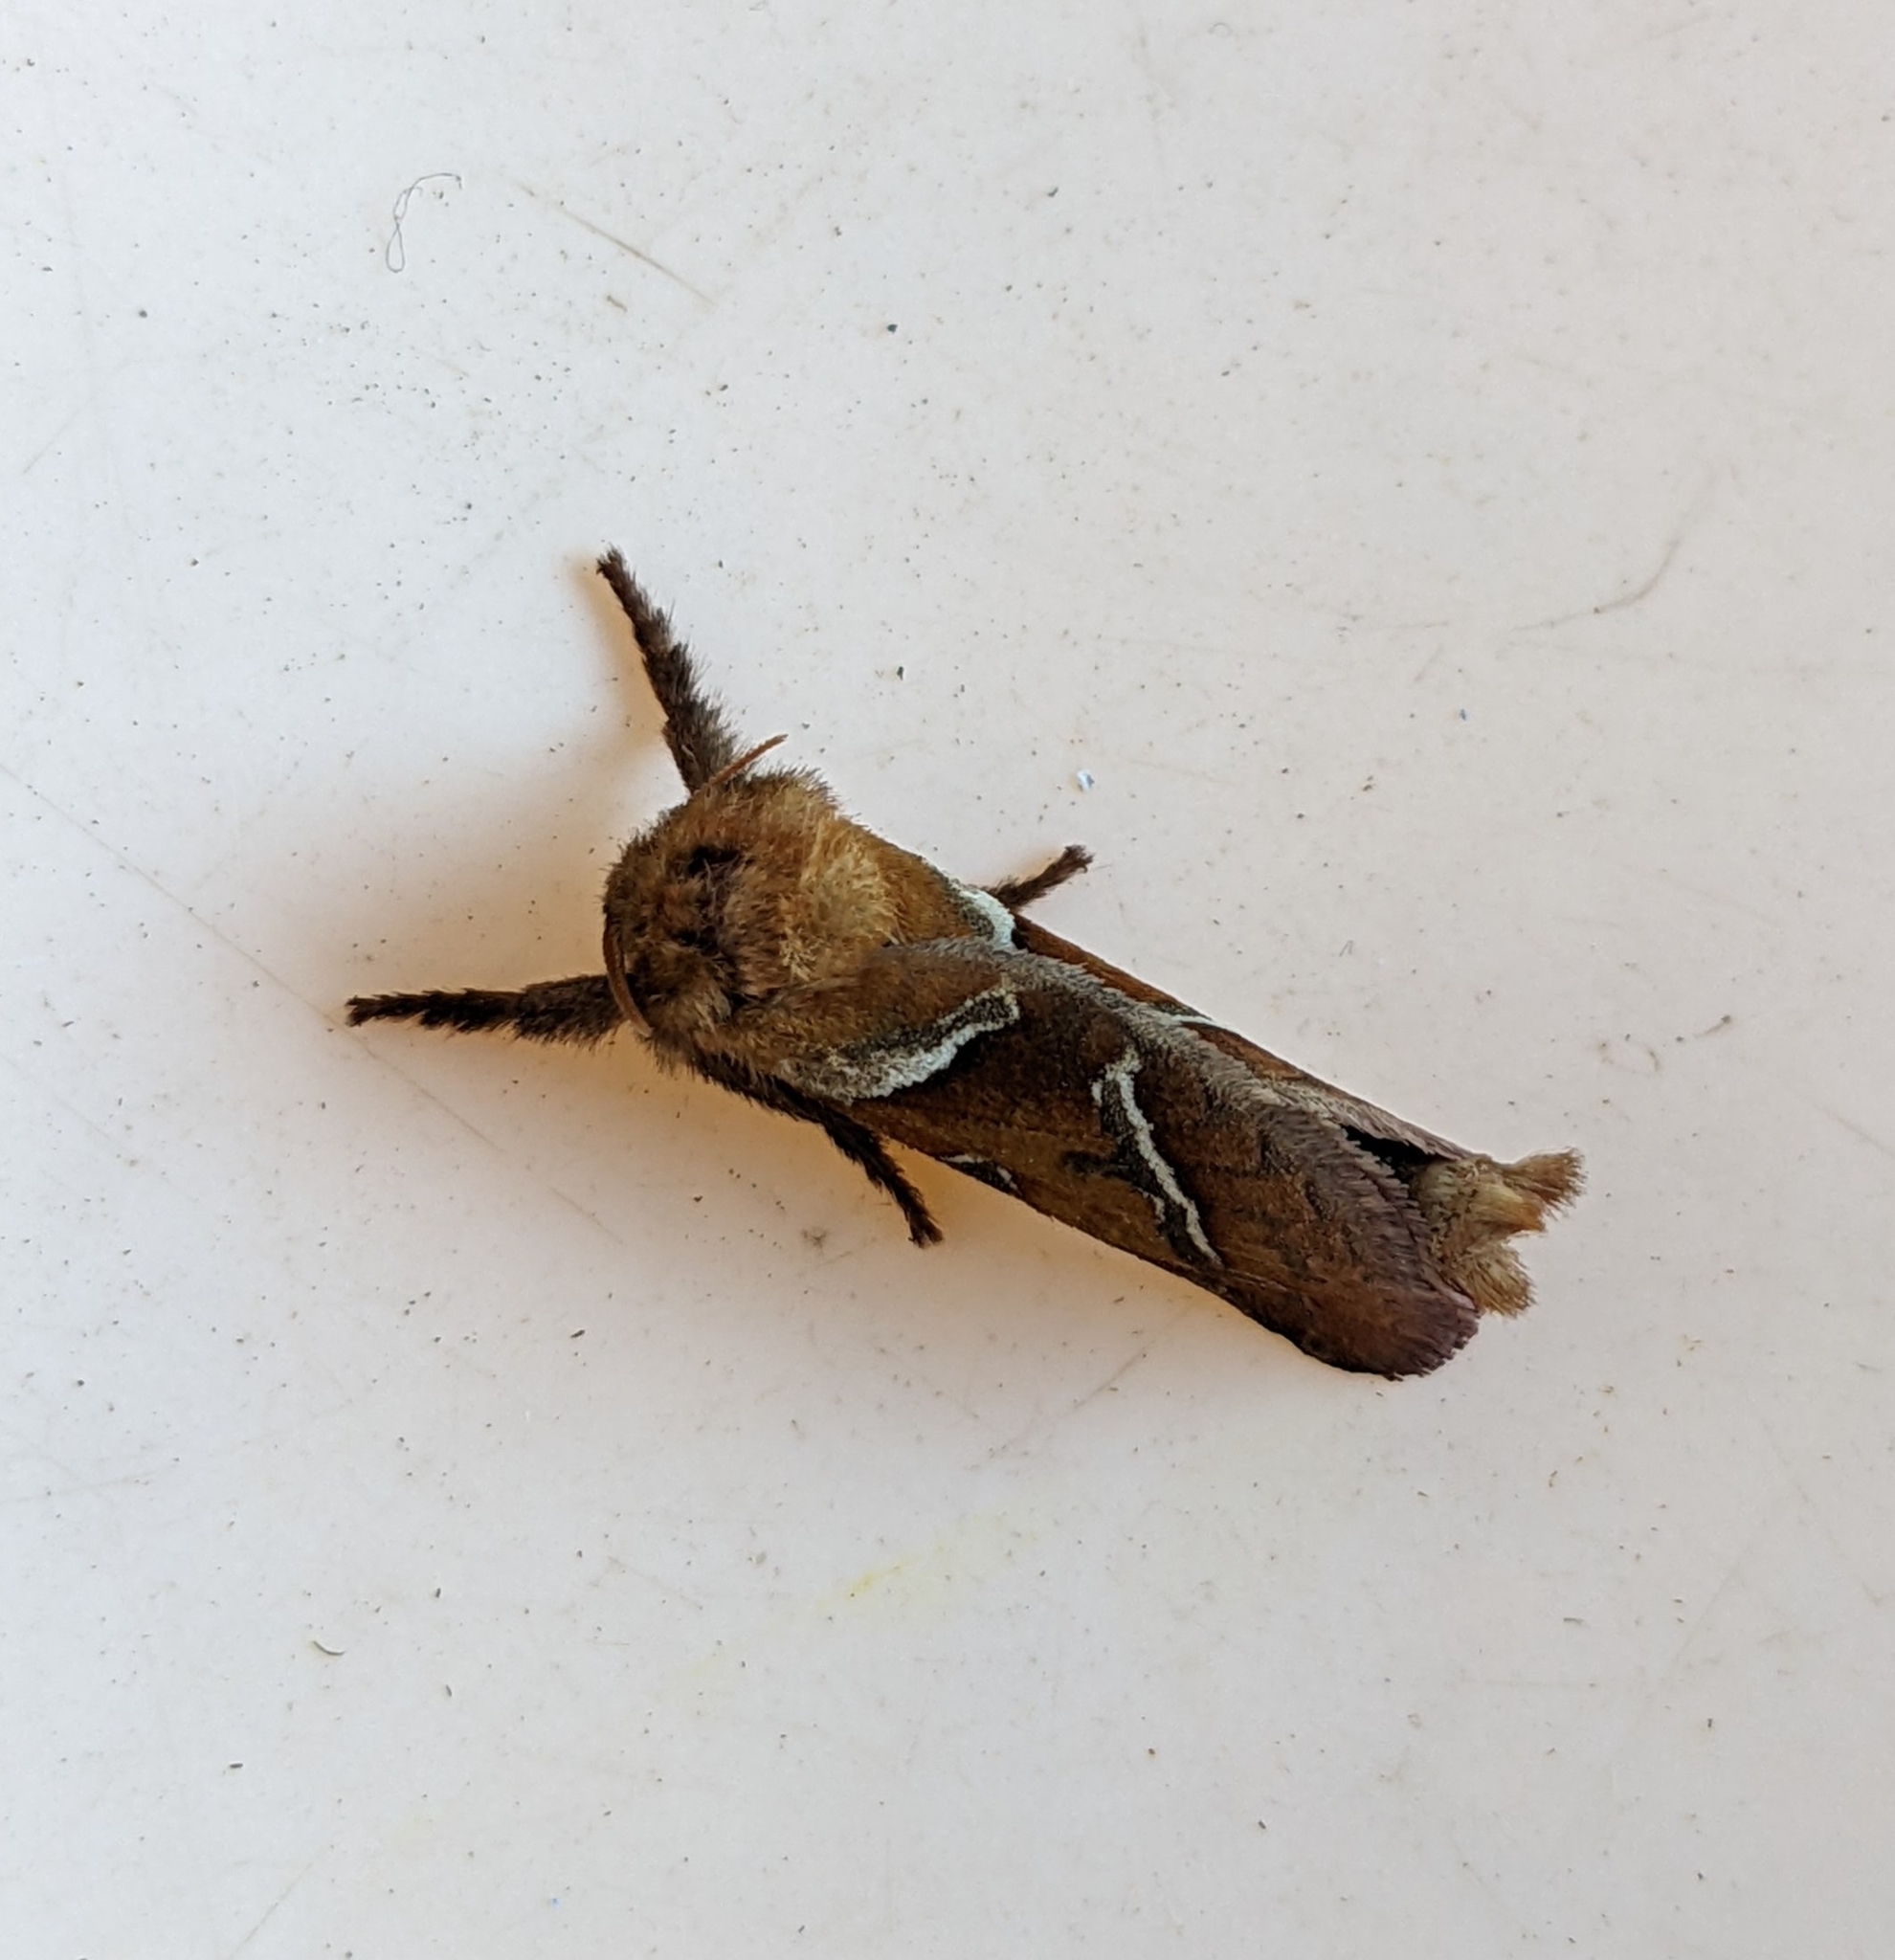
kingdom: Animalia
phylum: Arthropoda
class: Insecta
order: Lepidoptera
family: Hepialidae
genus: Triodia
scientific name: Triodia sylvina
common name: Orange swift
